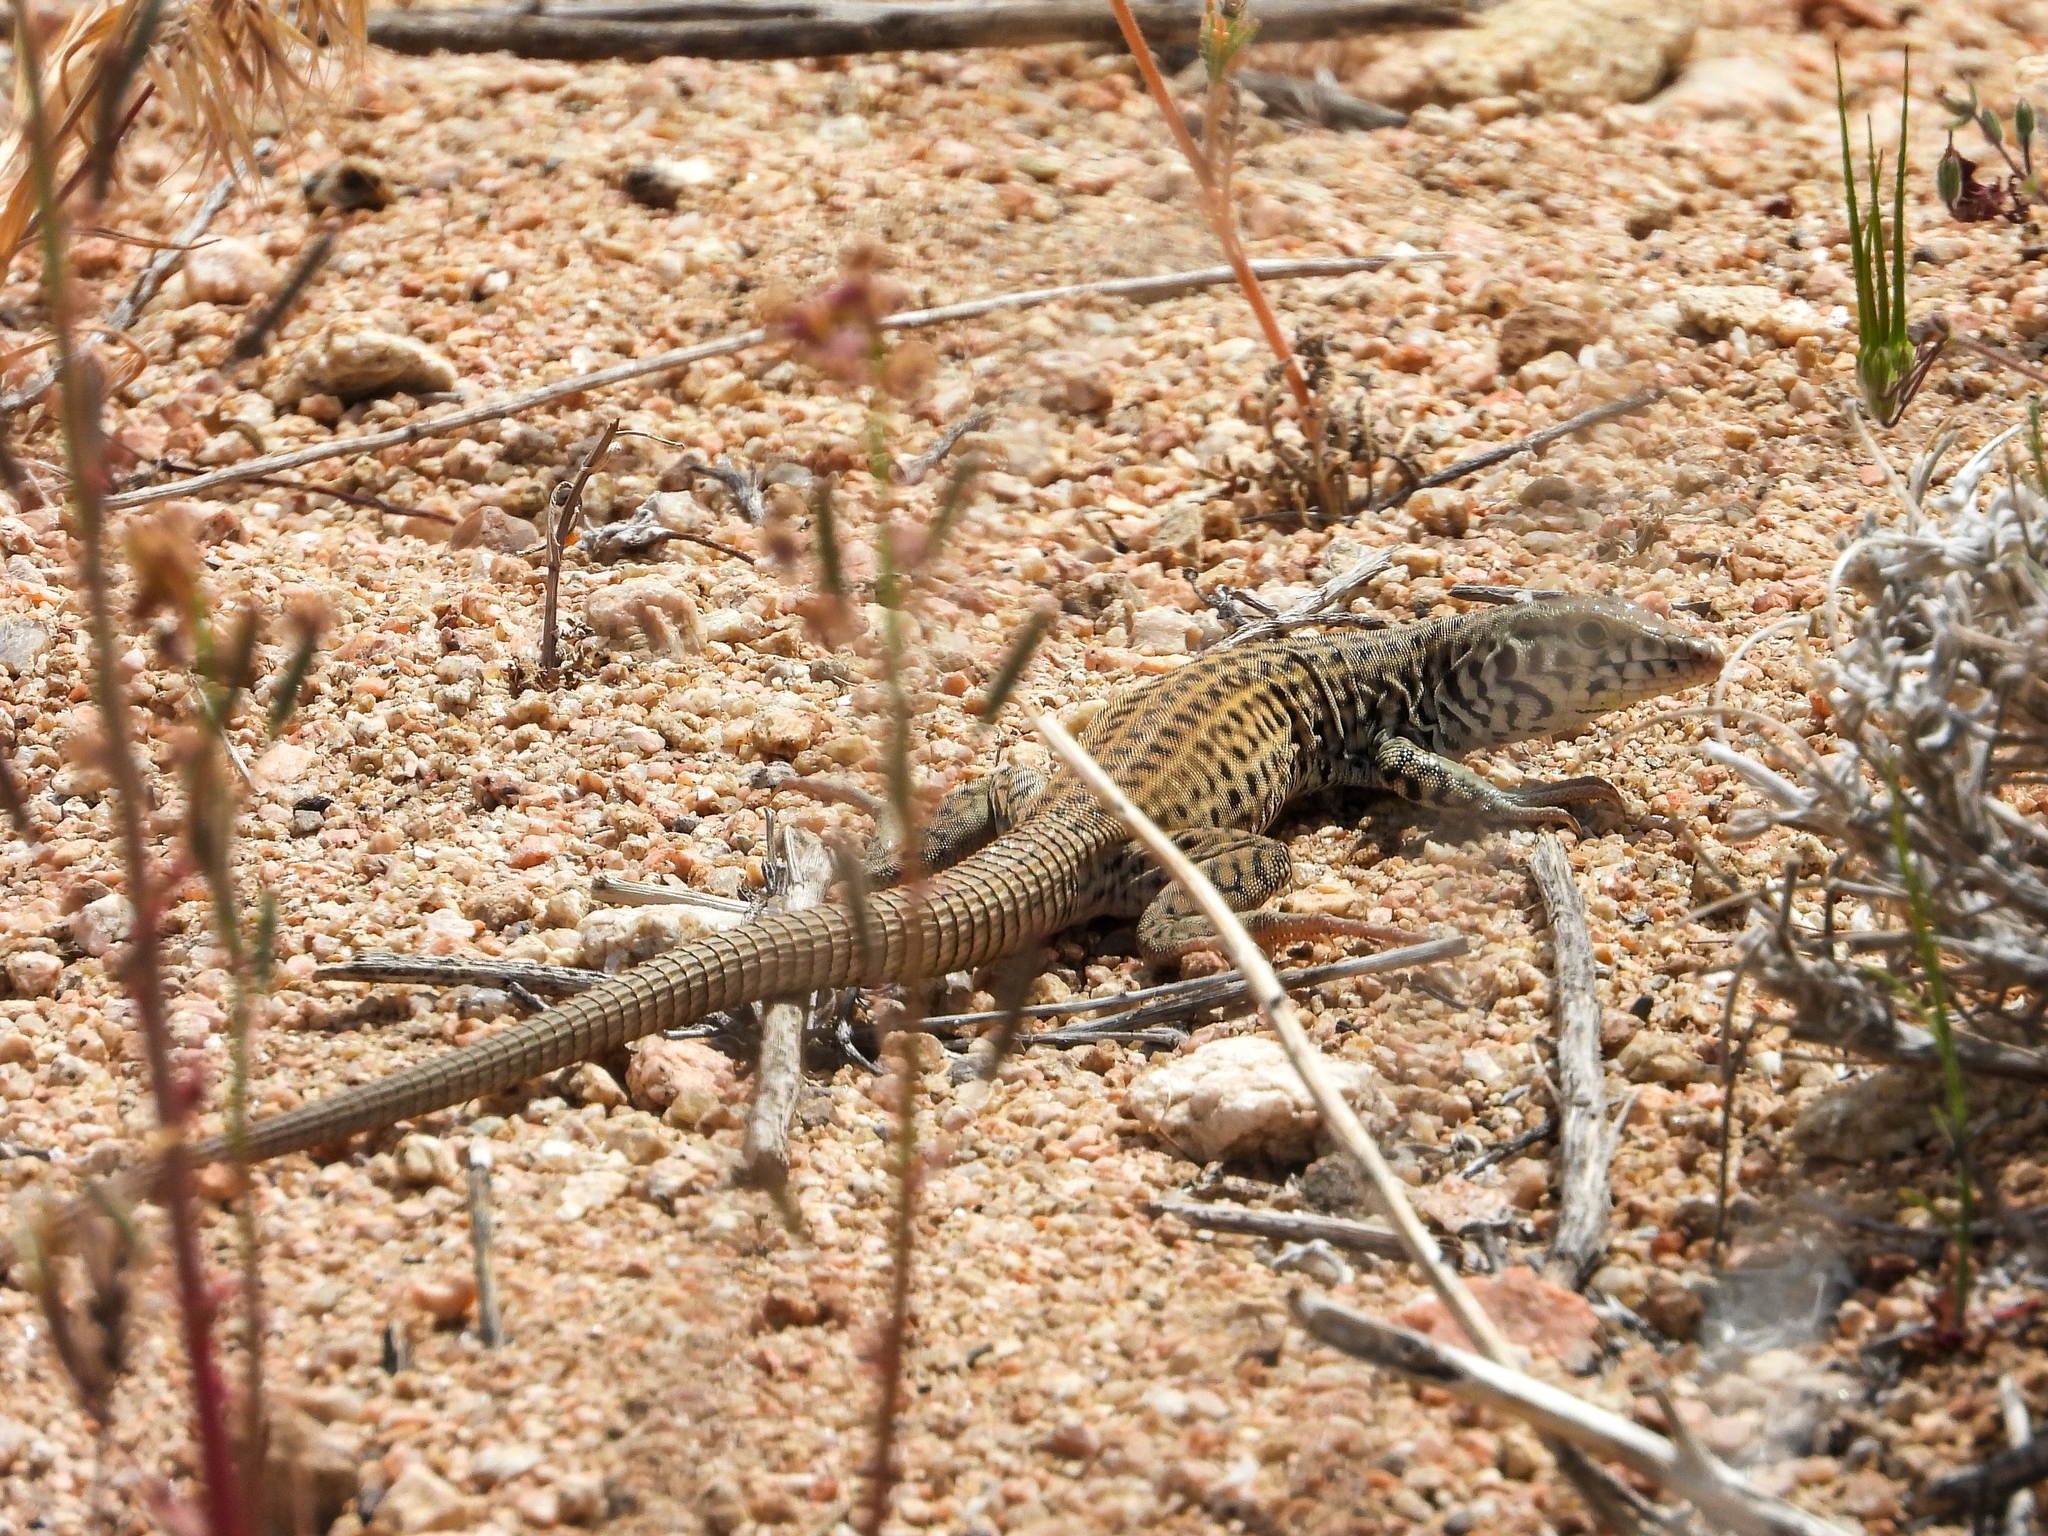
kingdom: Animalia
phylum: Chordata
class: Squamata
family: Teiidae
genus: Aspidoscelis
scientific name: Aspidoscelis tigris
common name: Tiger whiptail
